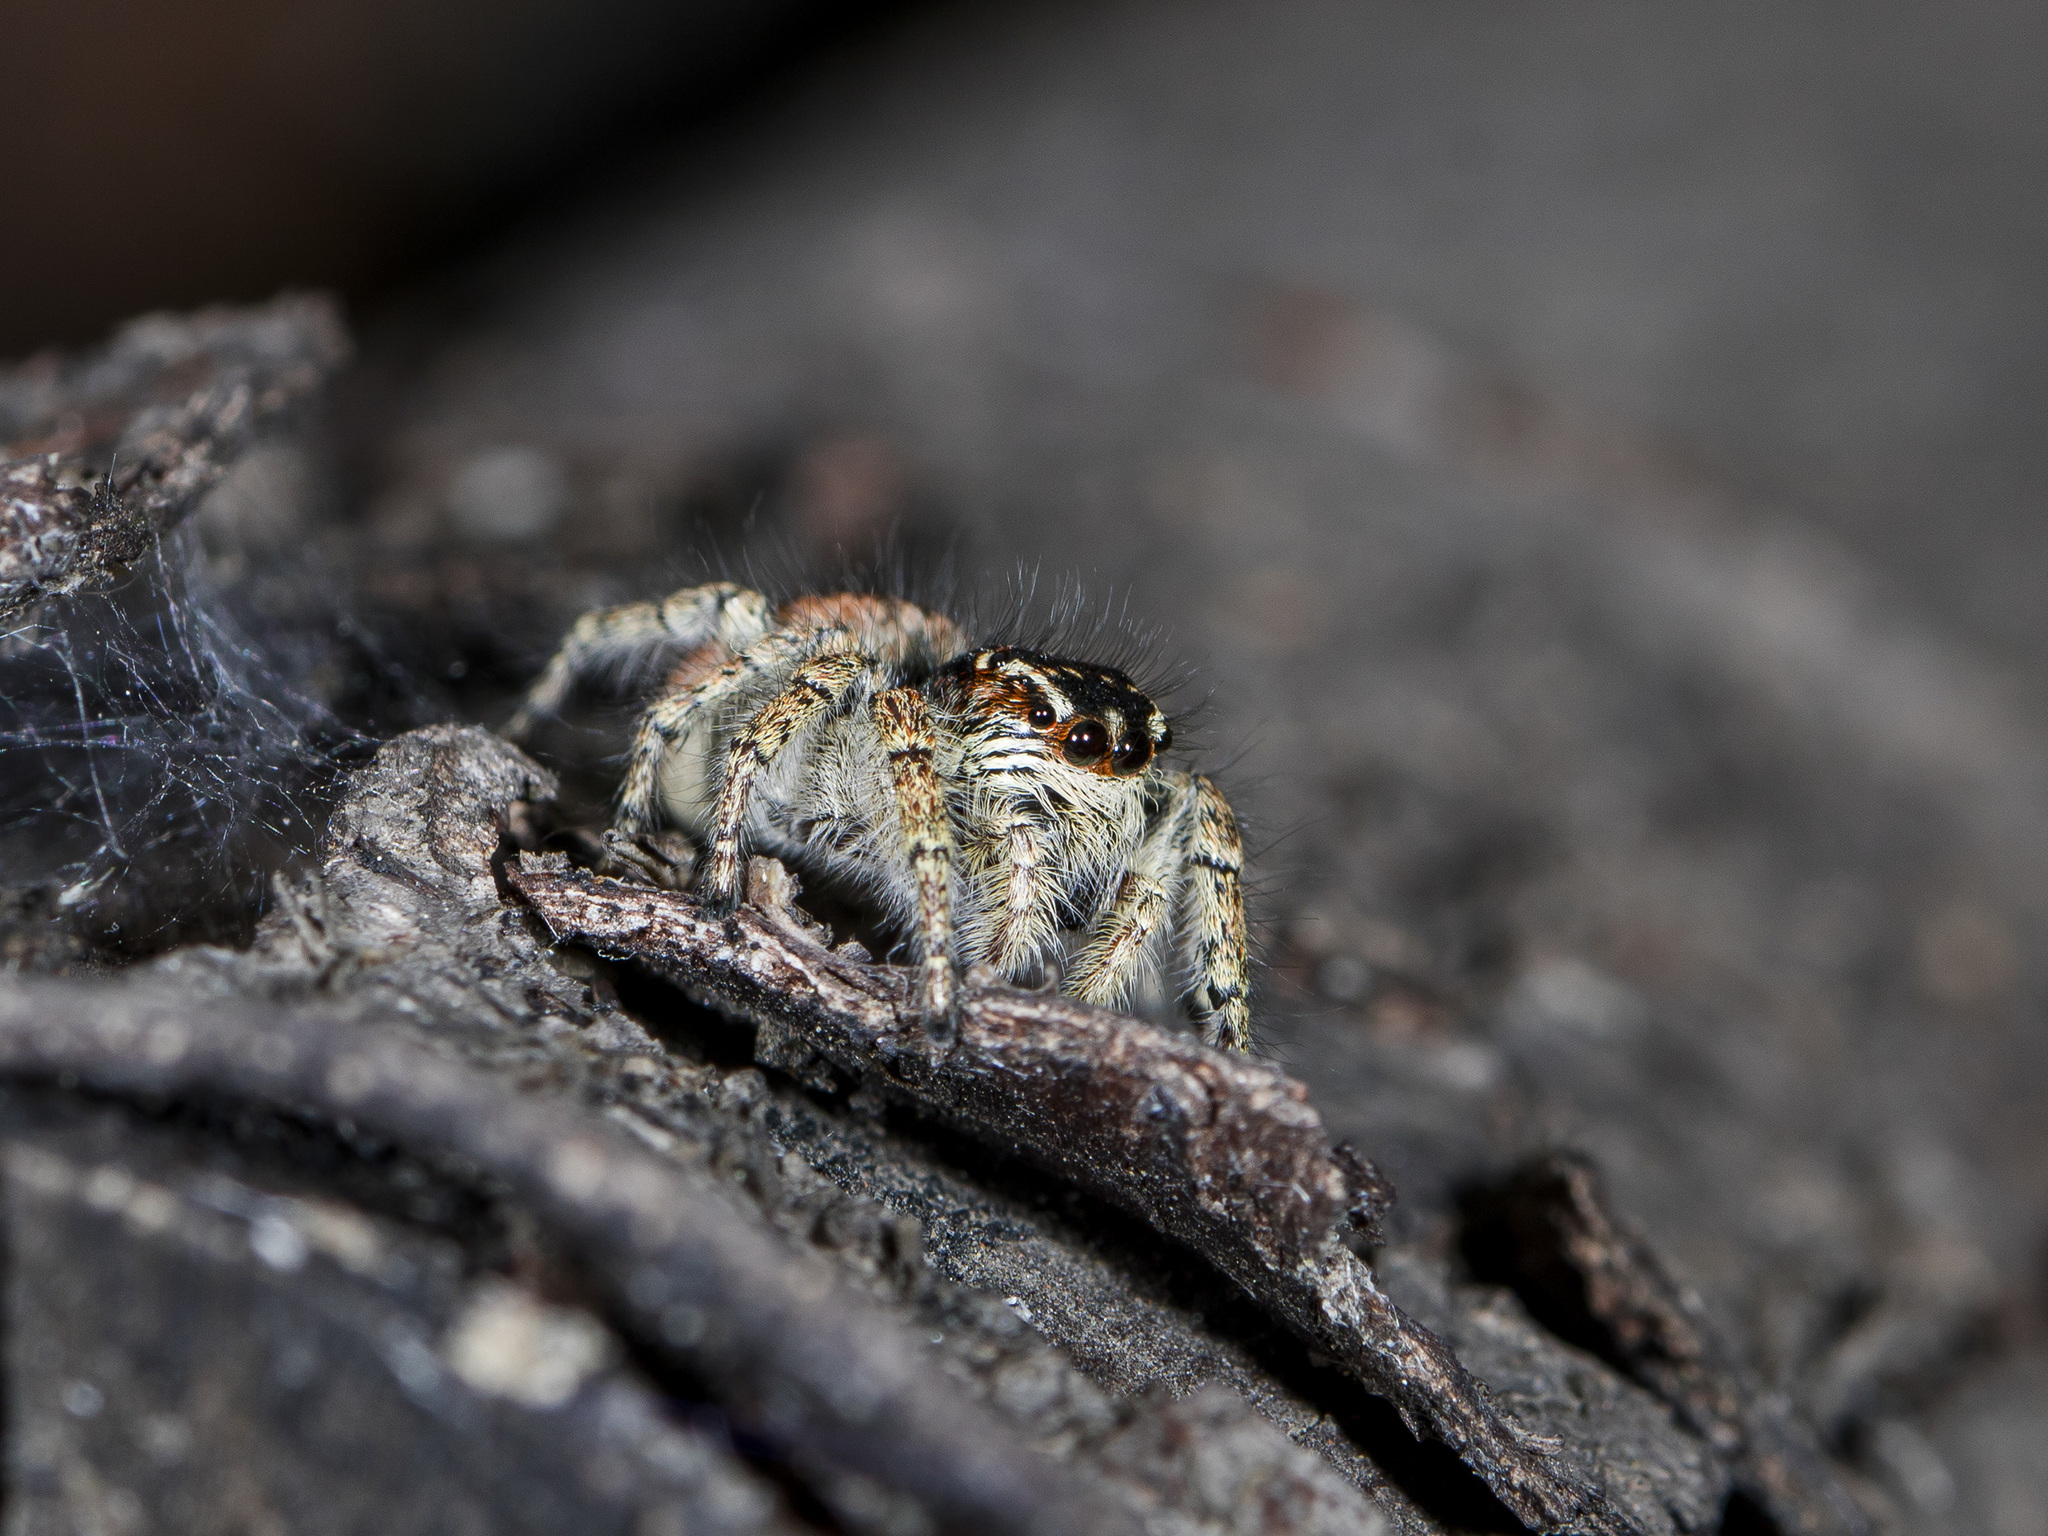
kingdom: Animalia
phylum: Arthropoda
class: Arachnida
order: Araneae
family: Salticidae
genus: Philaeus
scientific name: Philaeus chrysops
